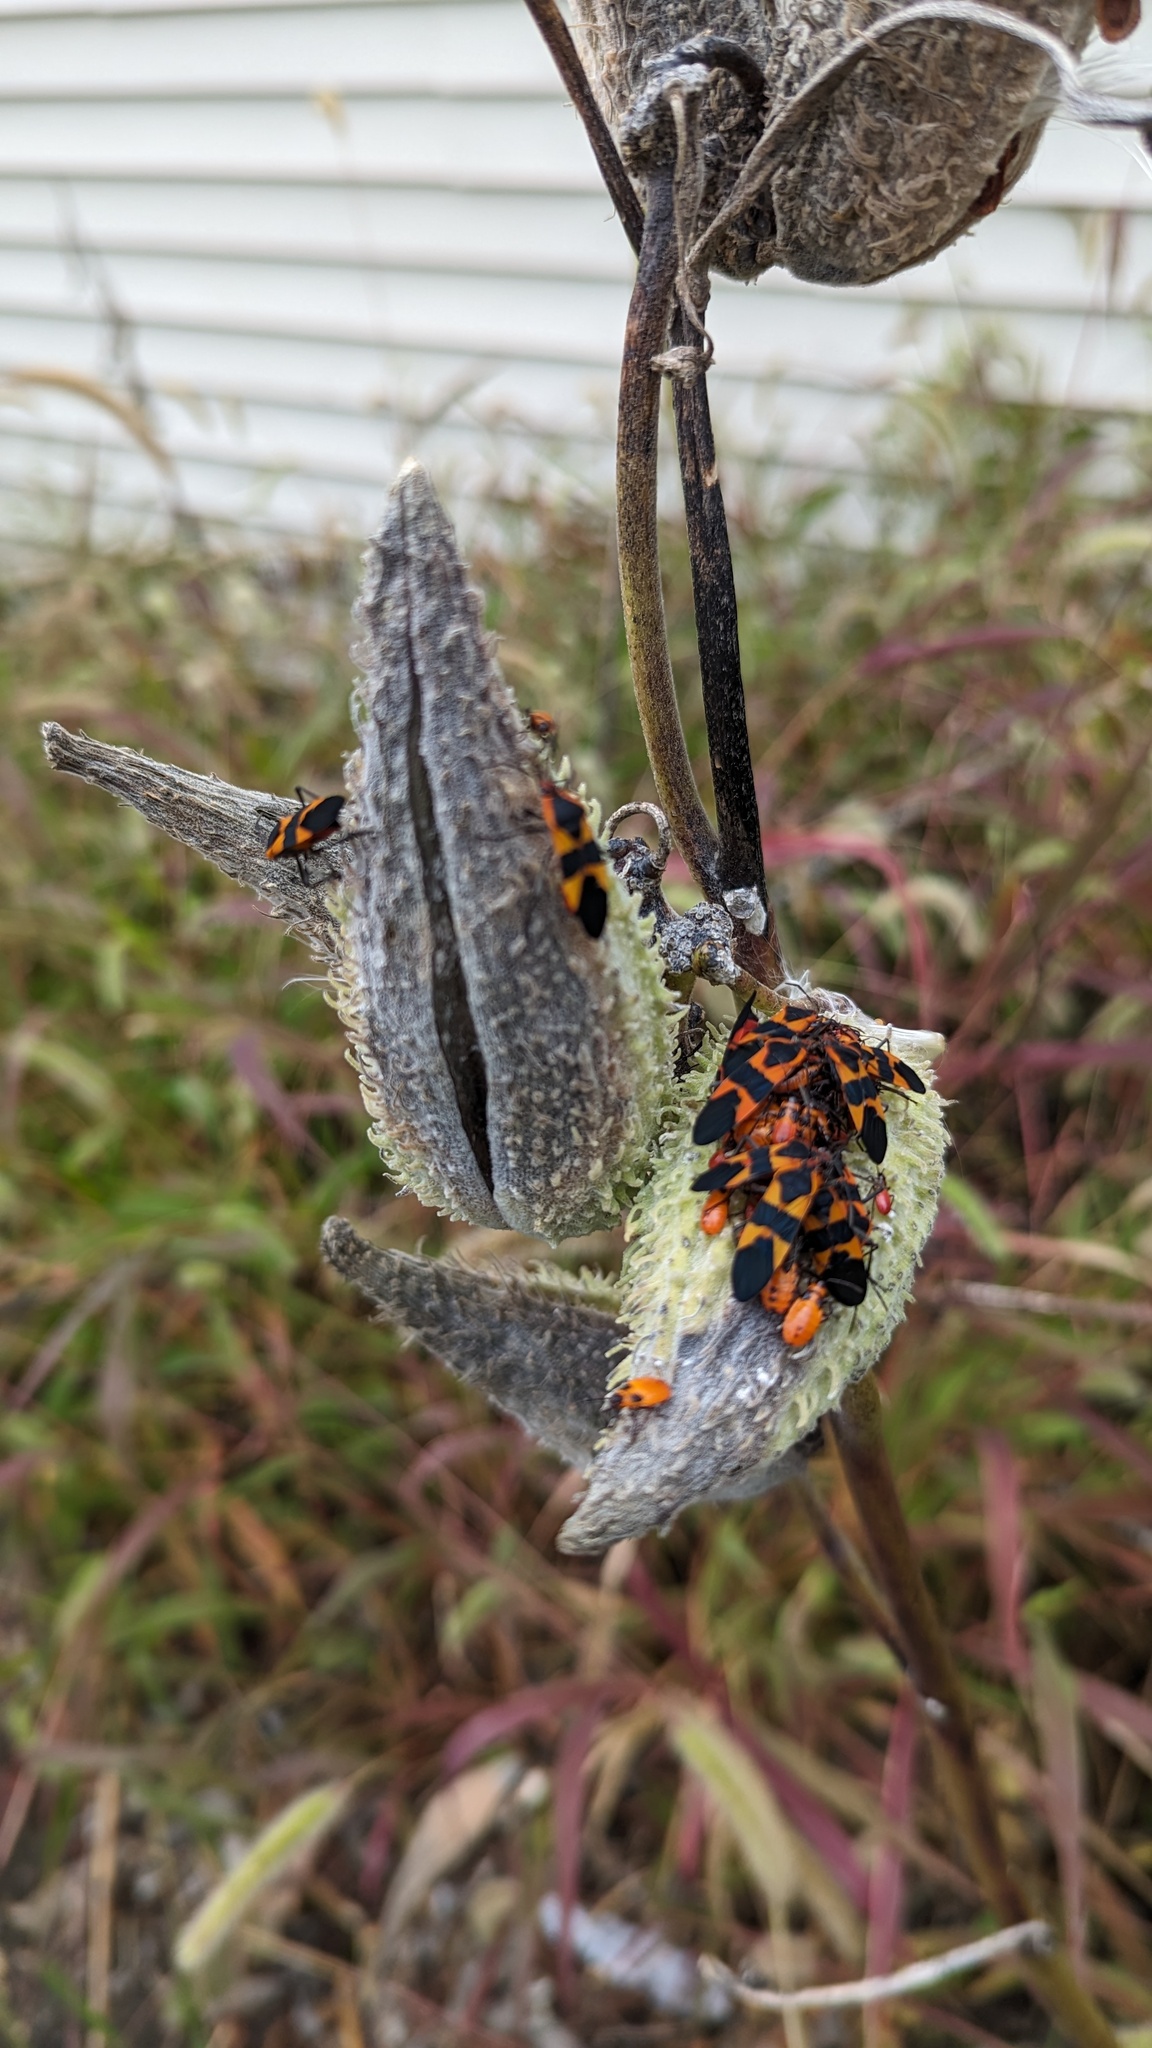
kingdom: Animalia
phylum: Arthropoda
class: Insecta
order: Hemiptera
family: Lygaeidae
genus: Oncopeltus
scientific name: Oncopeltus fasciatus
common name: Large milkweed bug
